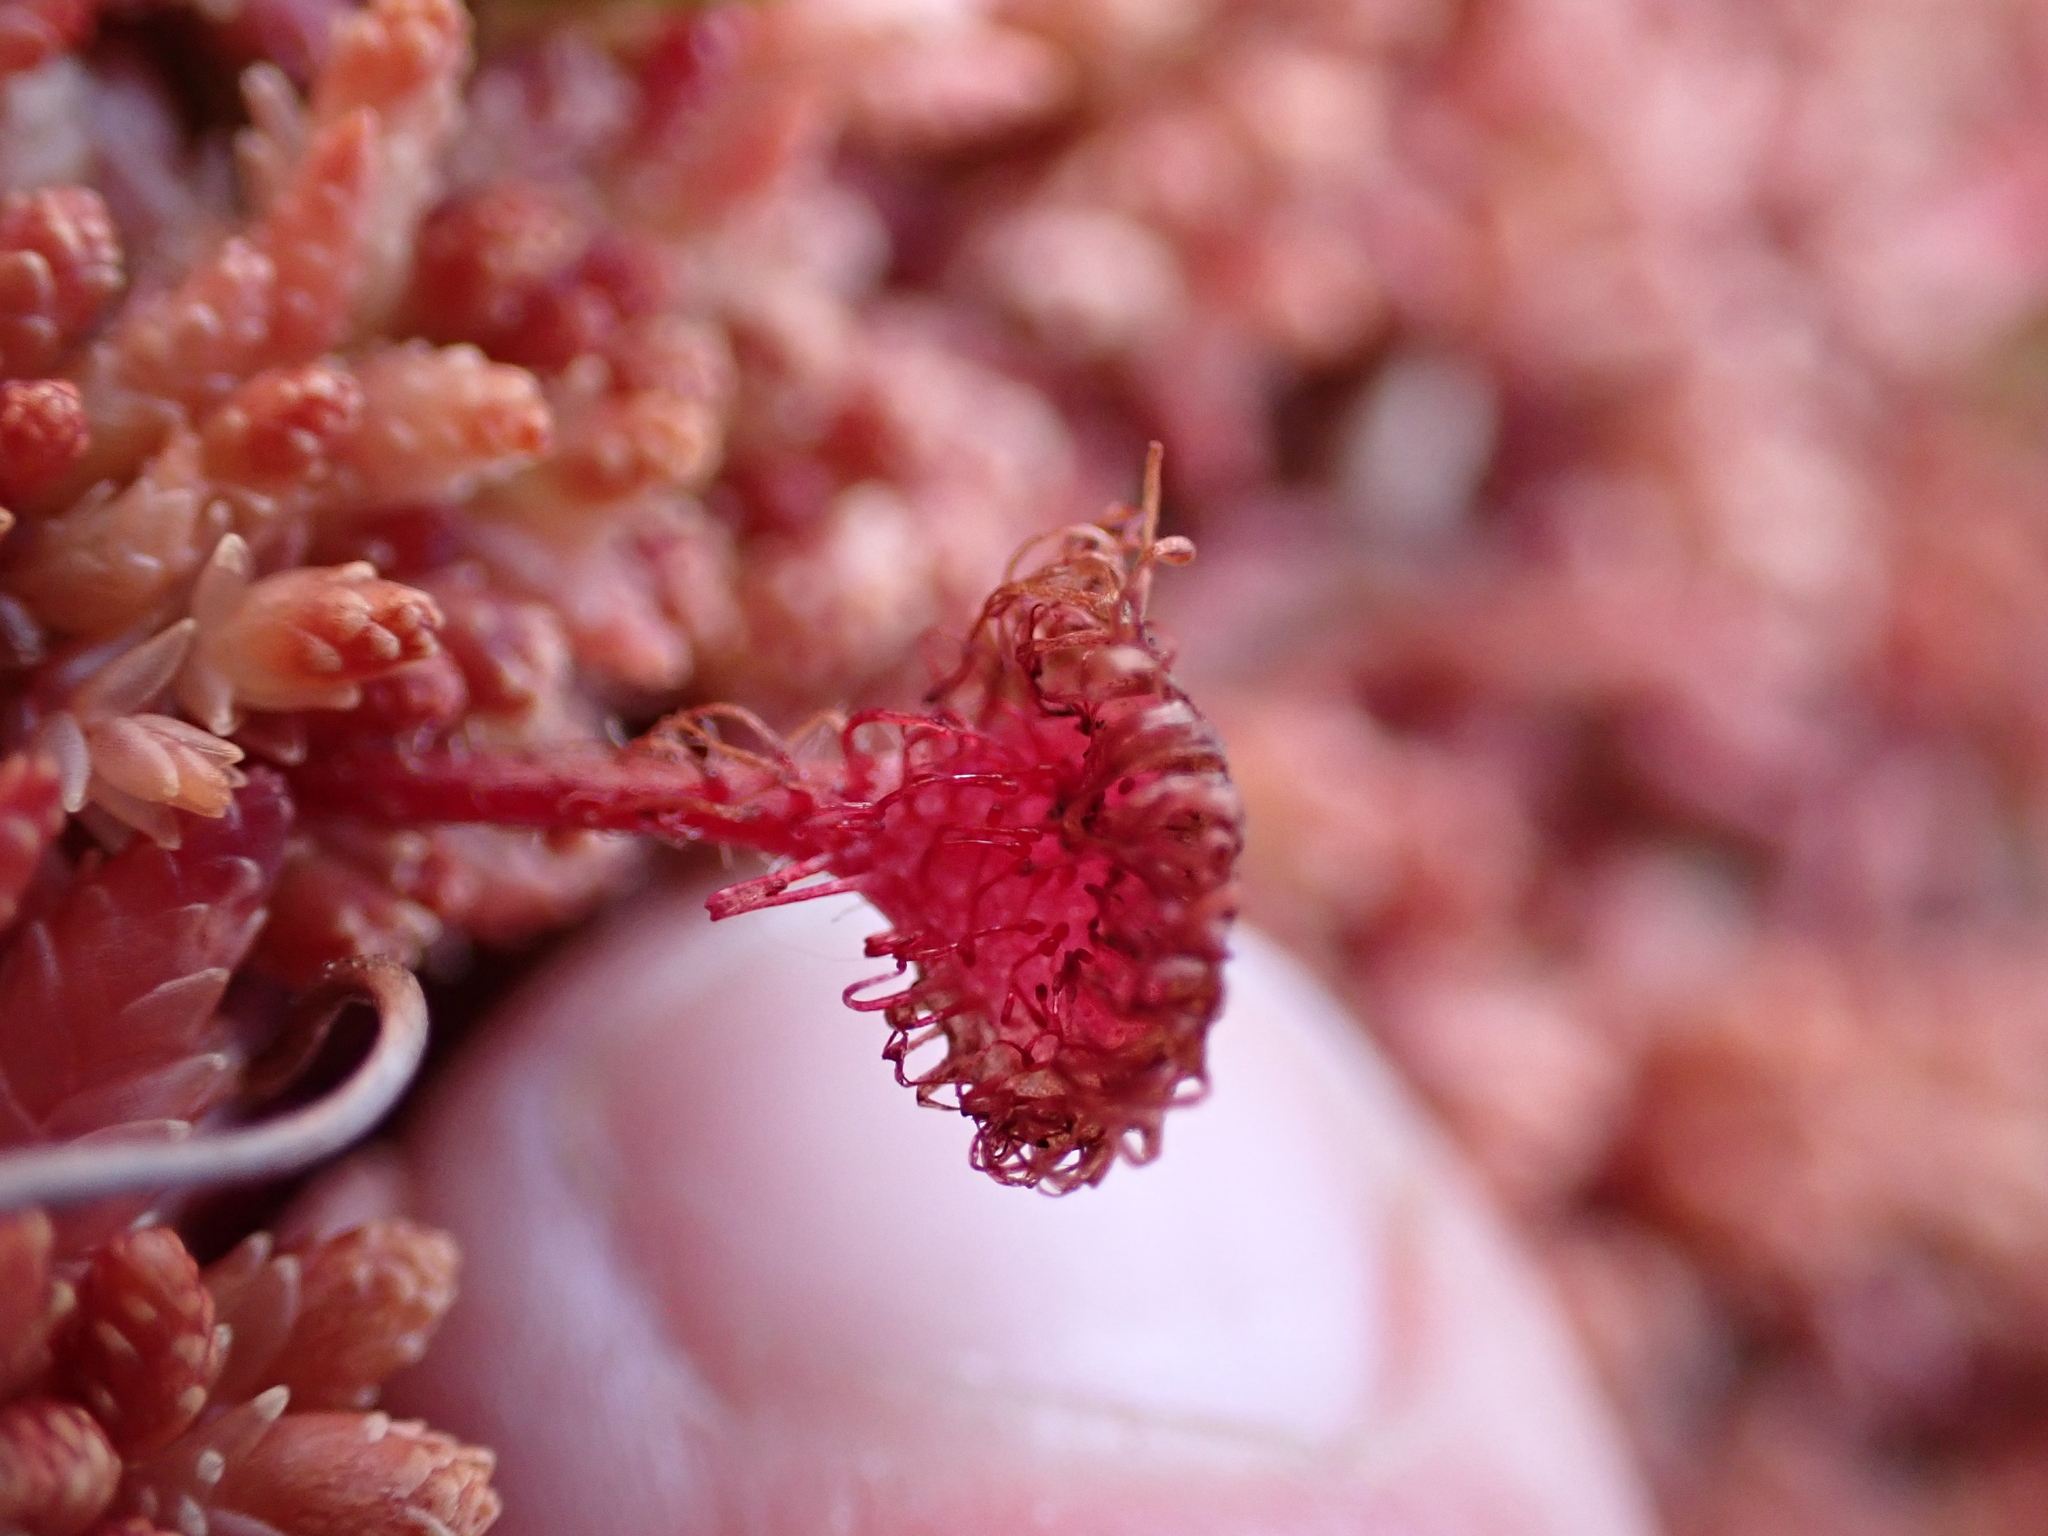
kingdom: Plantae
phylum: Tracheophyta
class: Magnoliopsida
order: Caryophyllales
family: Droseraceae
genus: Drosera
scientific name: Drosera rotundifolia
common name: Round-leaved sundew
